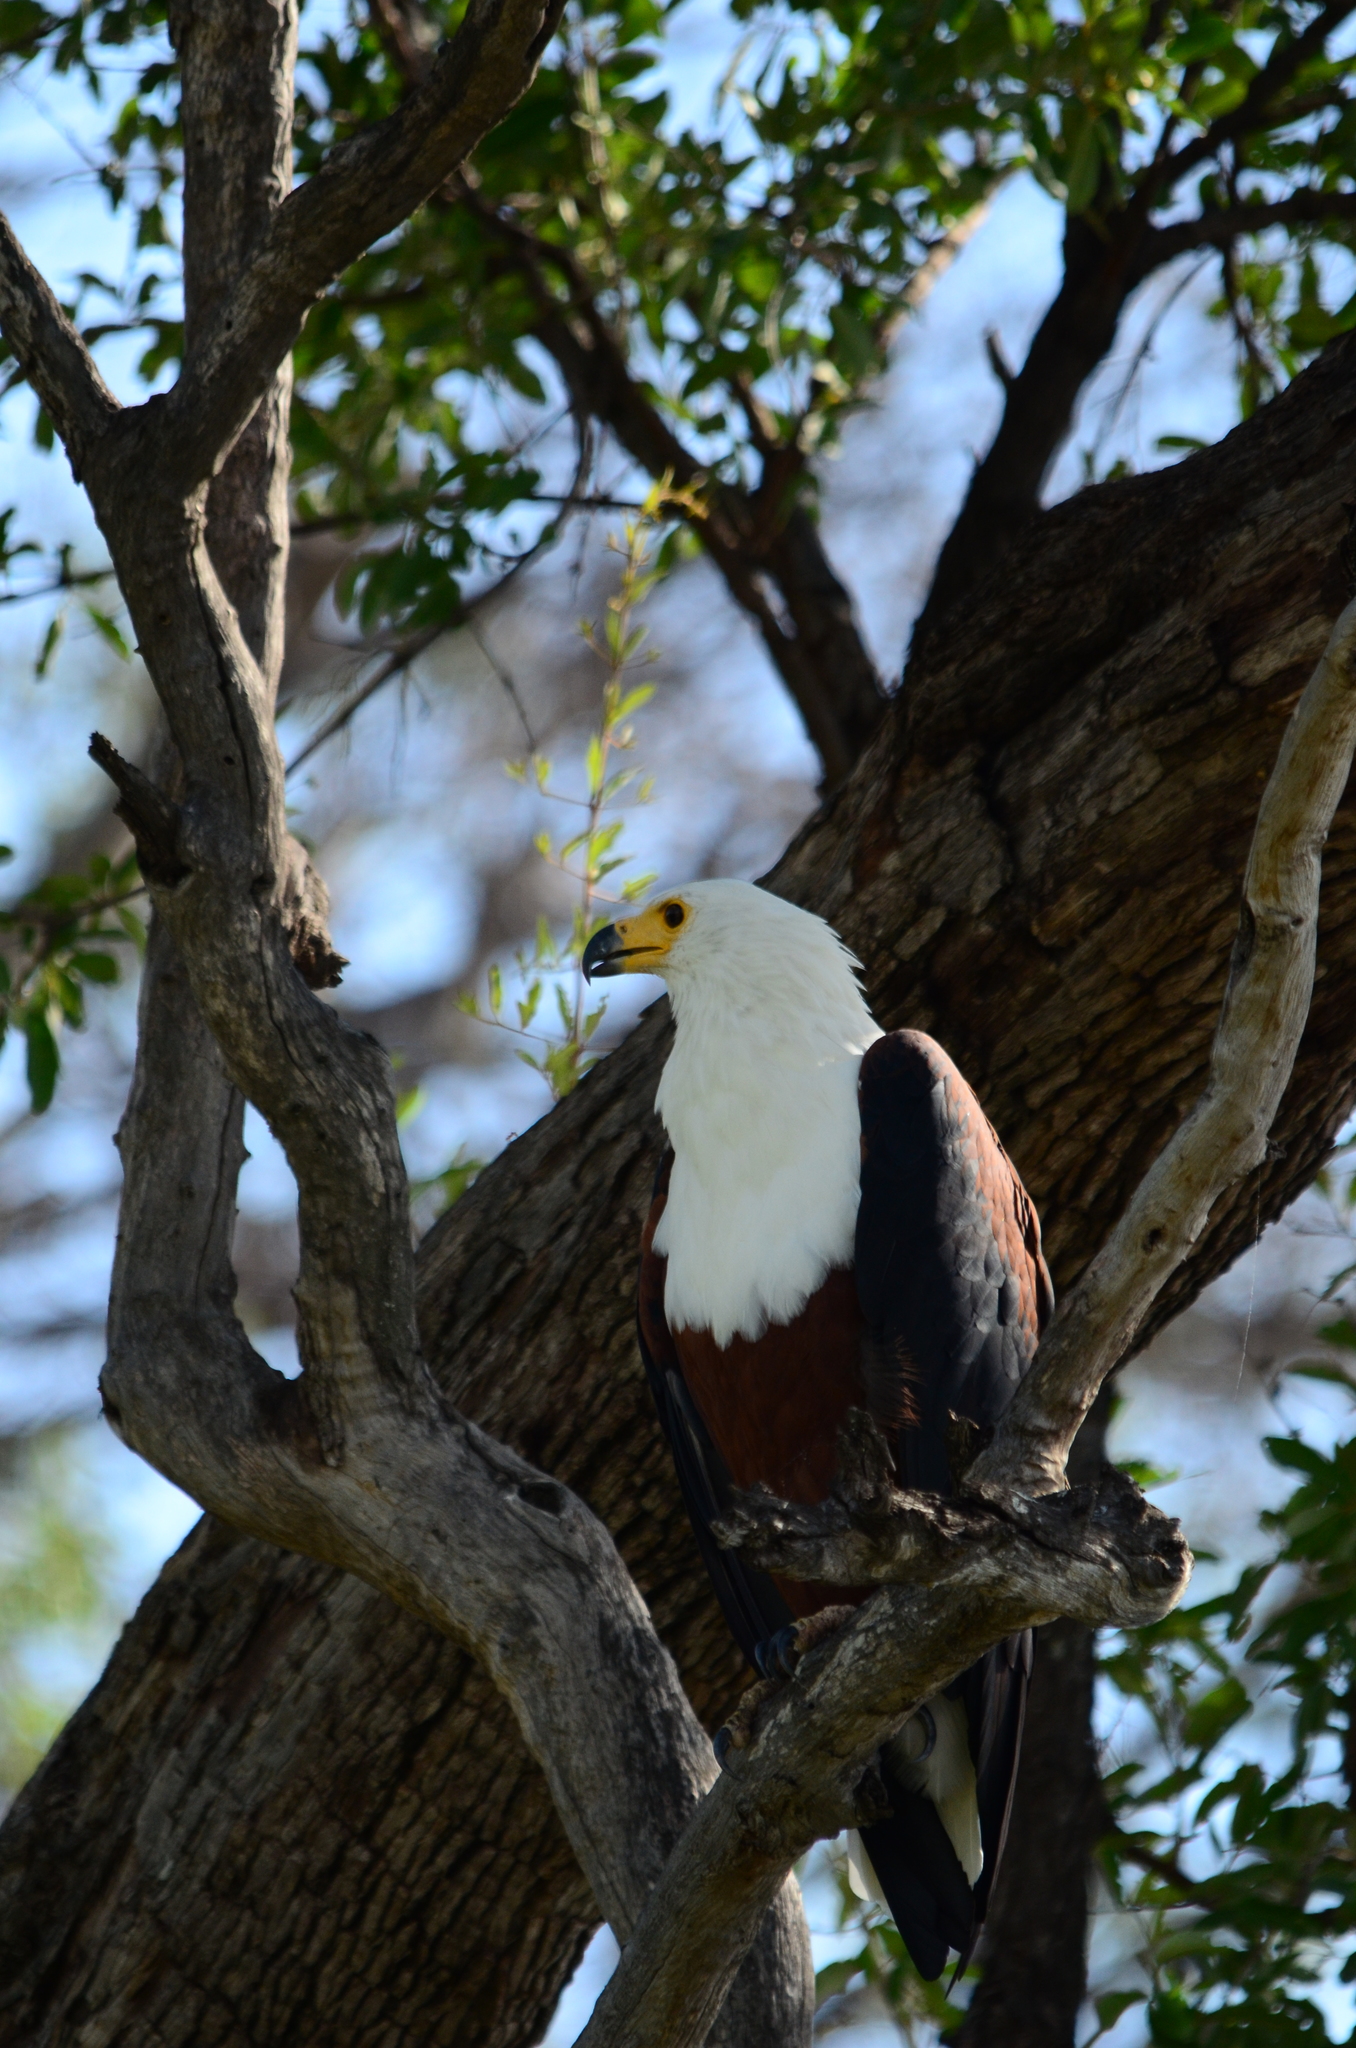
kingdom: Animalia
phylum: Chordata
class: Aves
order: Accipitriformes
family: Accipitridae
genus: Haliaeetus
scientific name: Haliaeetus vocifer
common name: African fish eagle
